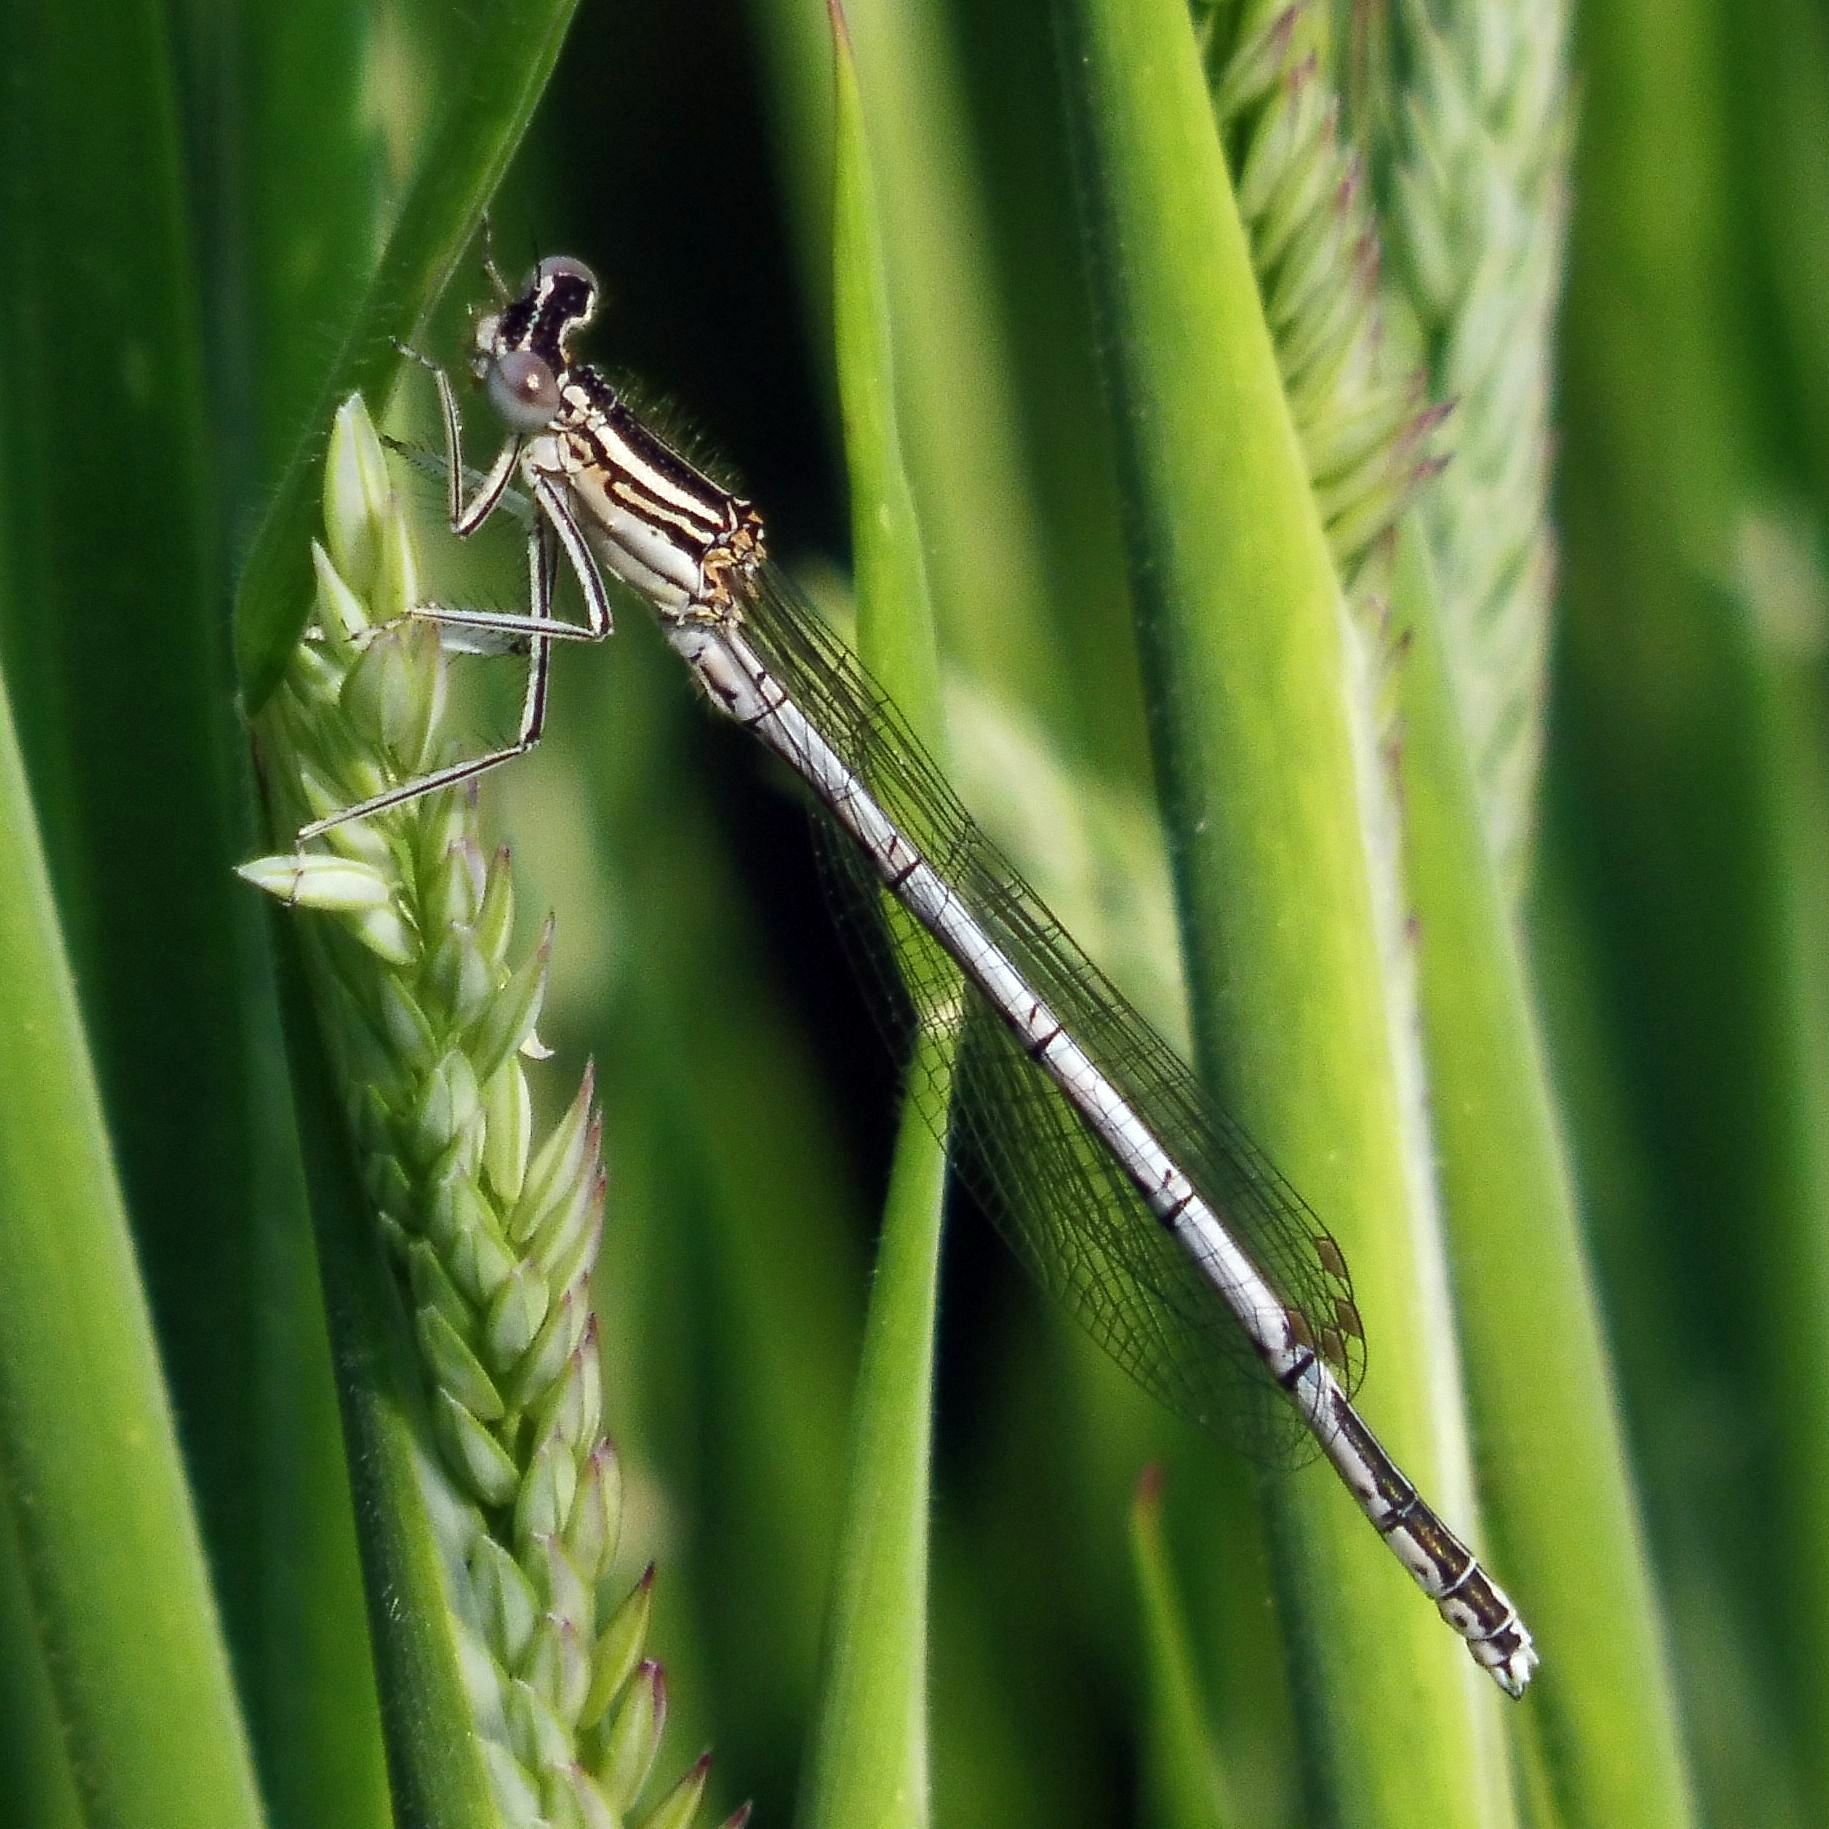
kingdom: Animalia
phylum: Arthropoda
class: Insecta
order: Odonata
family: Platycnemididae
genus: Platycnemis
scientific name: Platycnemis pennipes
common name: White-legged damselfly
